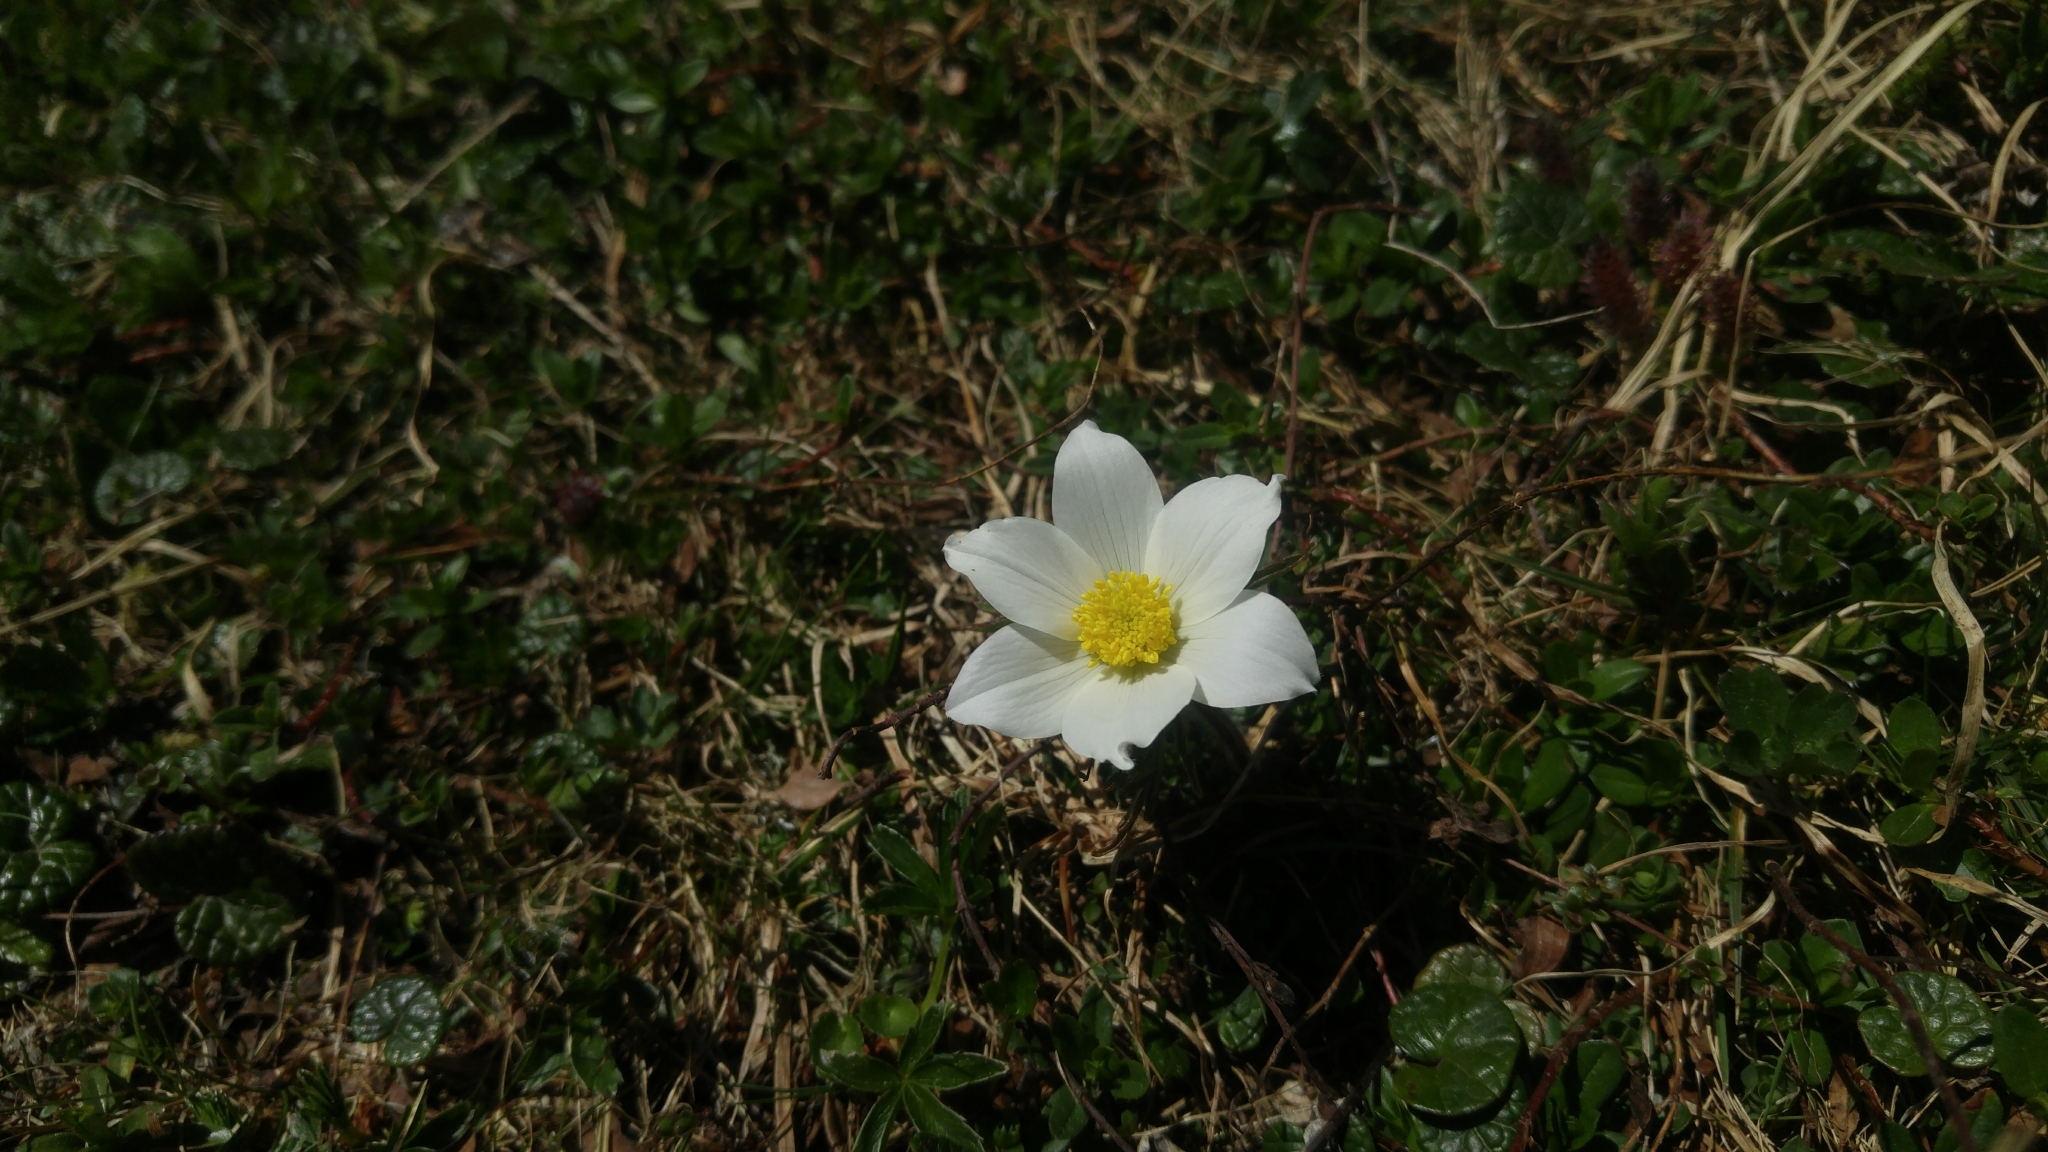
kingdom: Plantae
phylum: Tracheophyta
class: Magnoliopsida
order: Ranunculales
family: Ranunculaceae
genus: Pulsatilla
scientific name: Pulsatilla alpina
